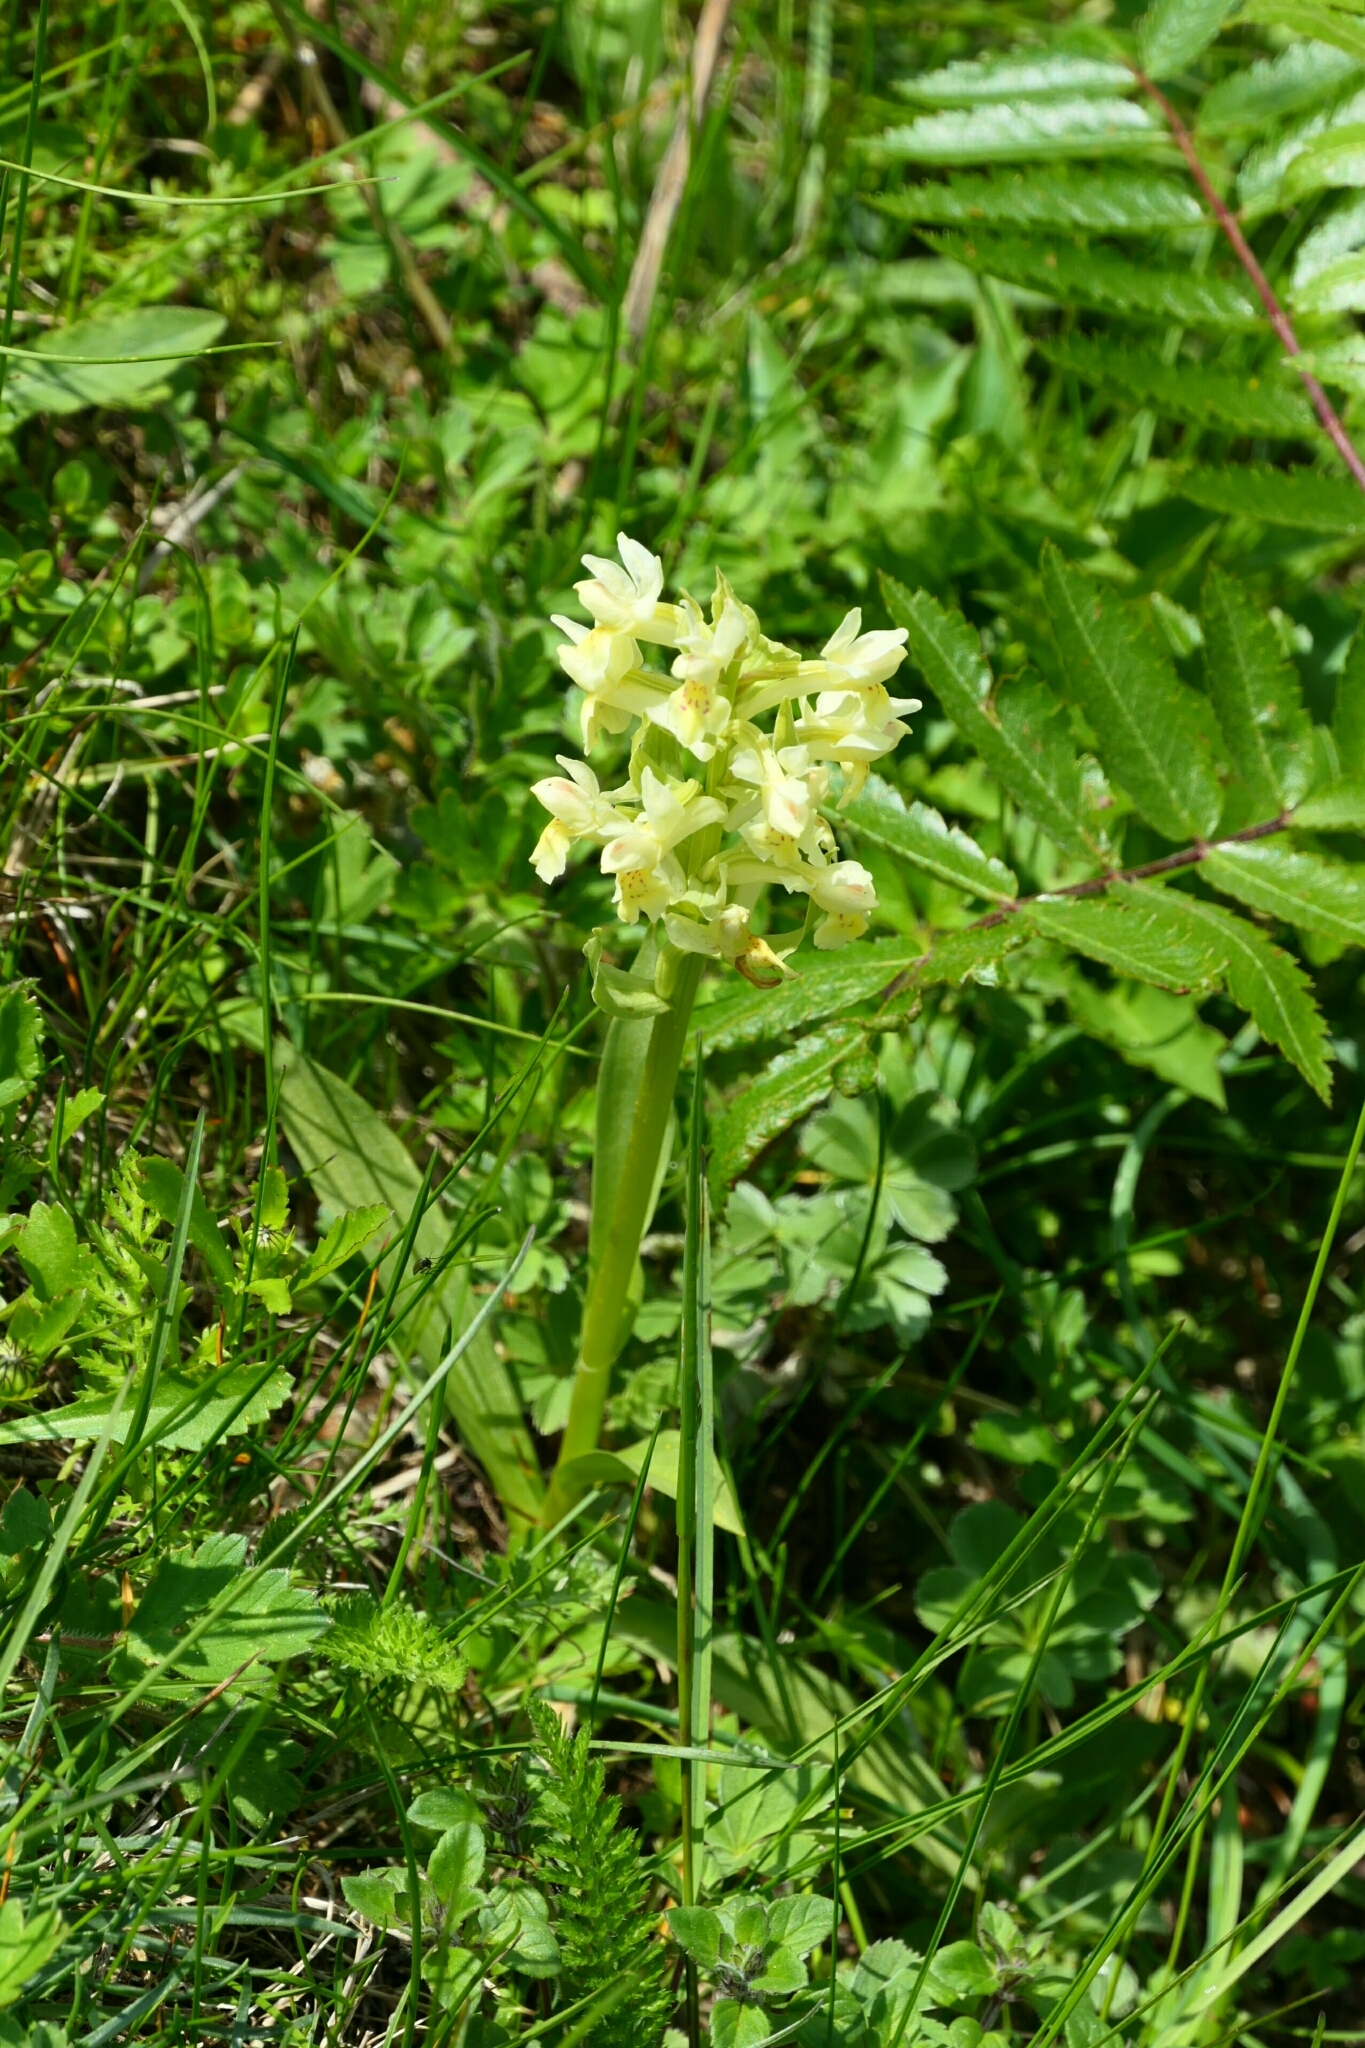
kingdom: Plantae
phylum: Tracheophyta
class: Liliopsida
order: Asparagales
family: Orchidaceae
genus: Dactylorhiza
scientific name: Dactylorhiza sambucina
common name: Elder-flowered orchid
